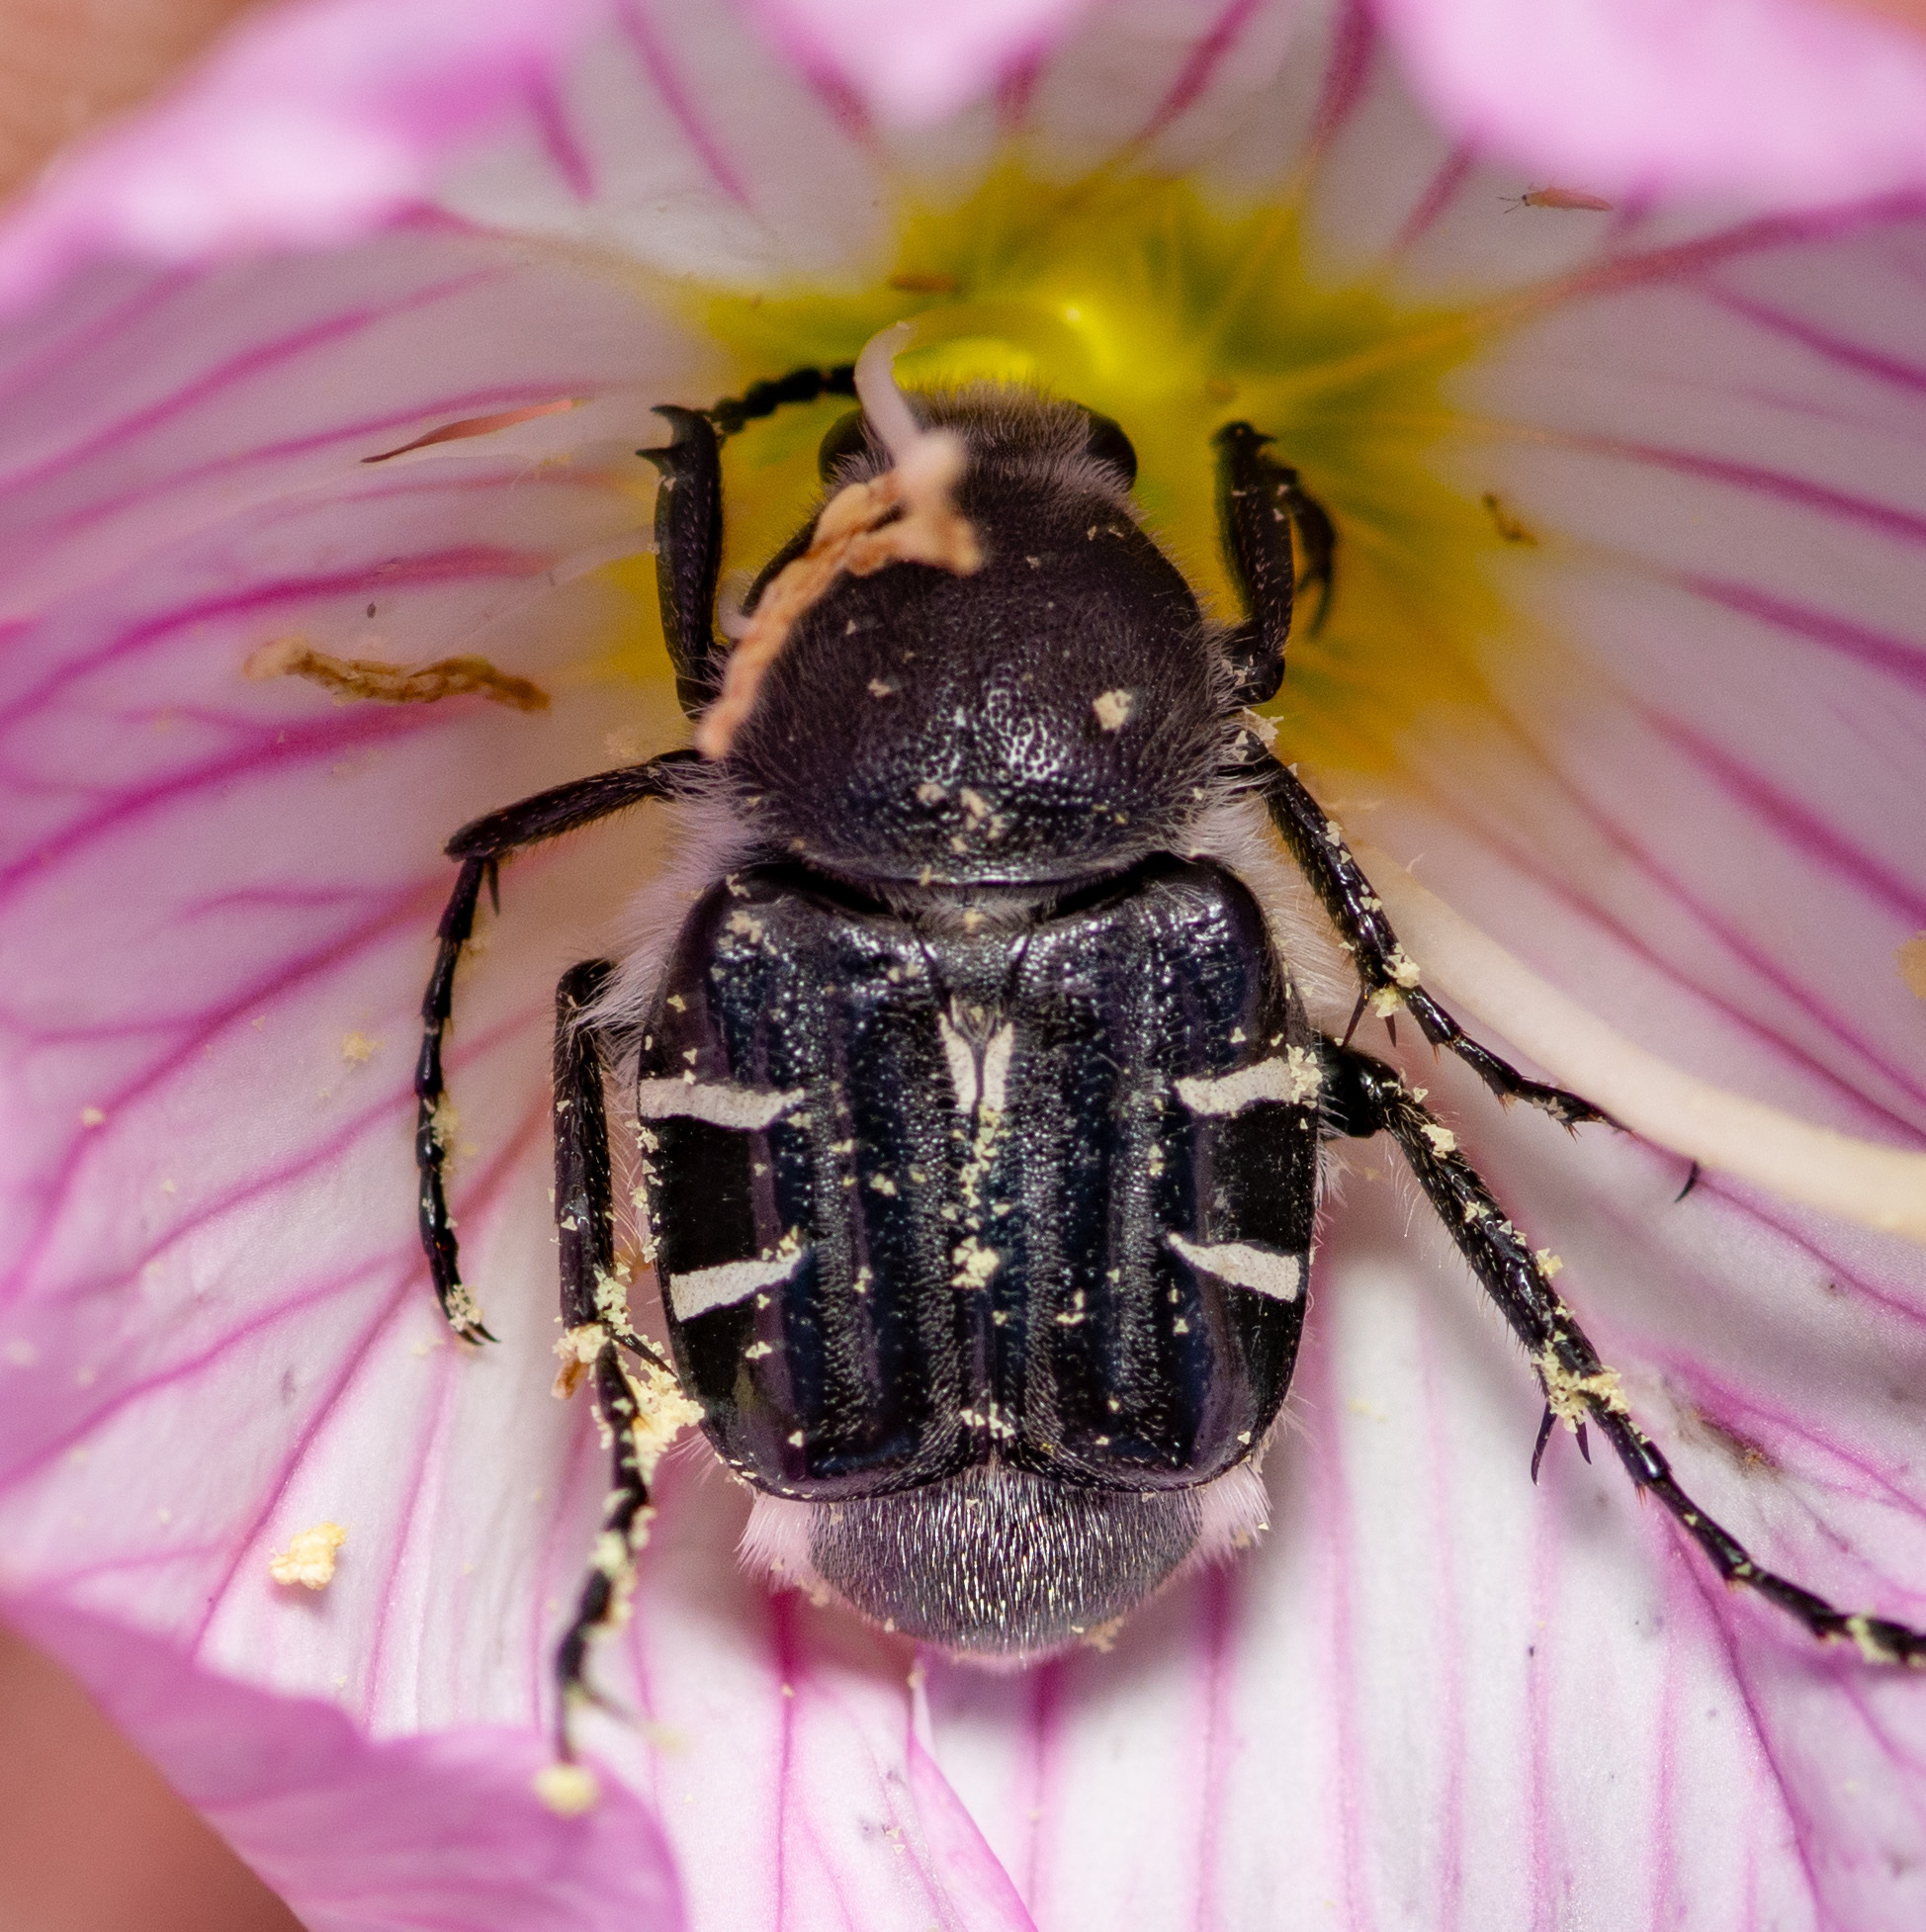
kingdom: Animalia
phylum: Arthropoda
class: Insecta
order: Coleoptera
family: Scarabaeidae
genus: Trichiotinus
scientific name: Trichiotinus texanus
